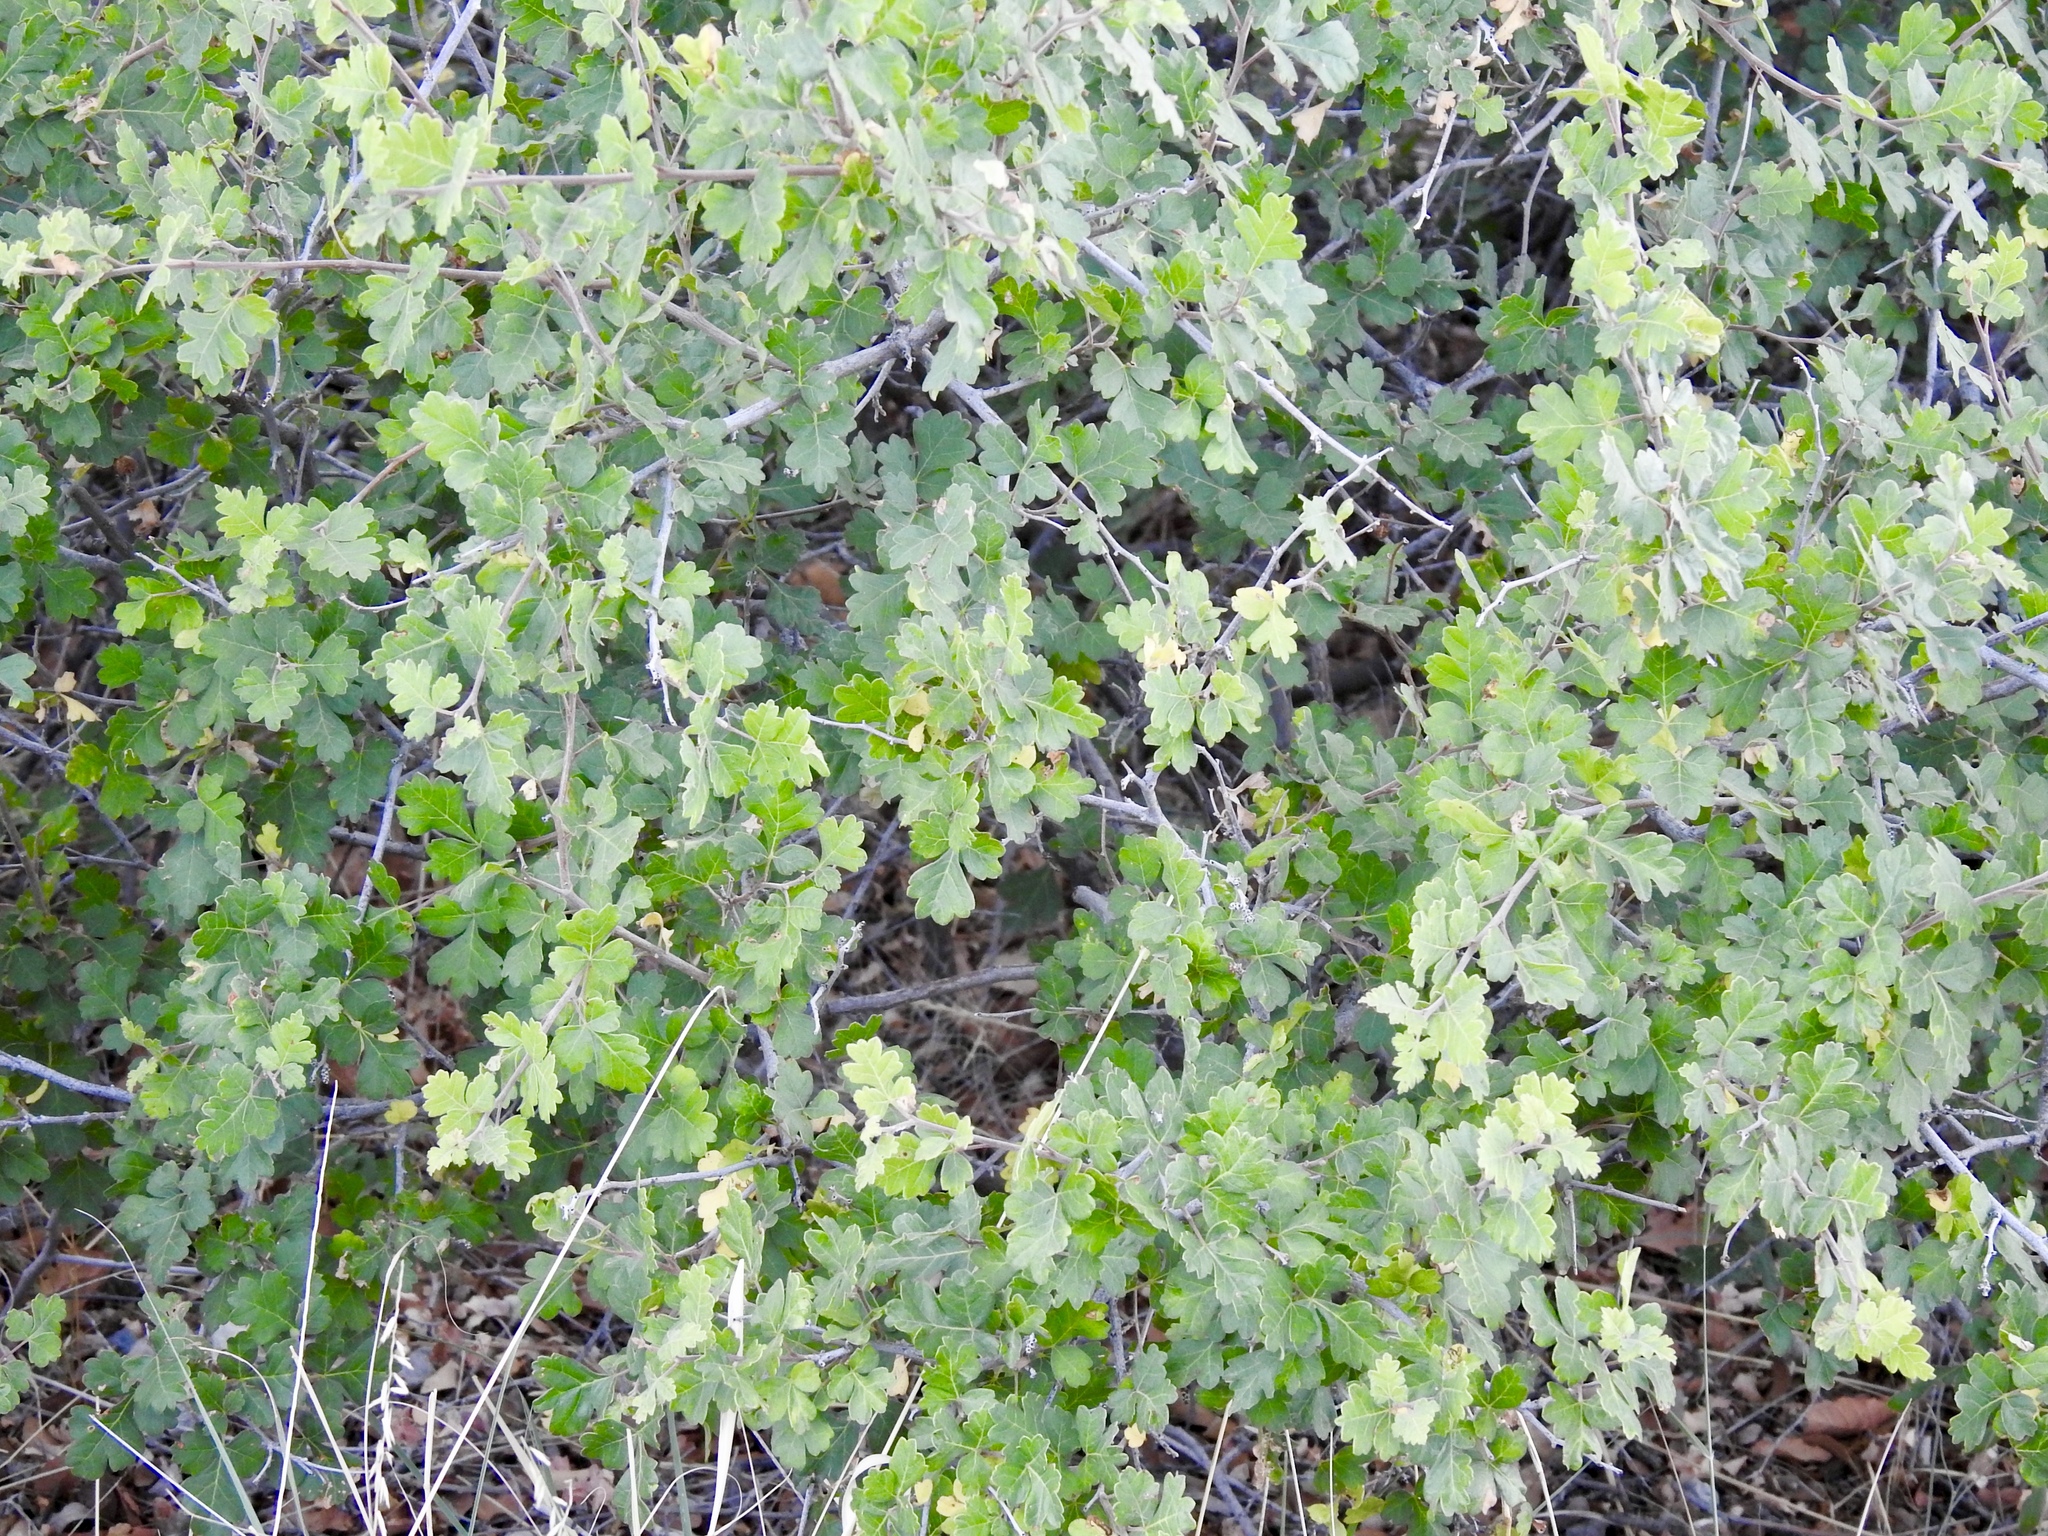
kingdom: Plantae
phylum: Tracheophyta
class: Magnoliopsida
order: Sapindales
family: Anacardiaceae
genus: Rhus
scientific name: Rhus aromatica
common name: Aromatic sumac
